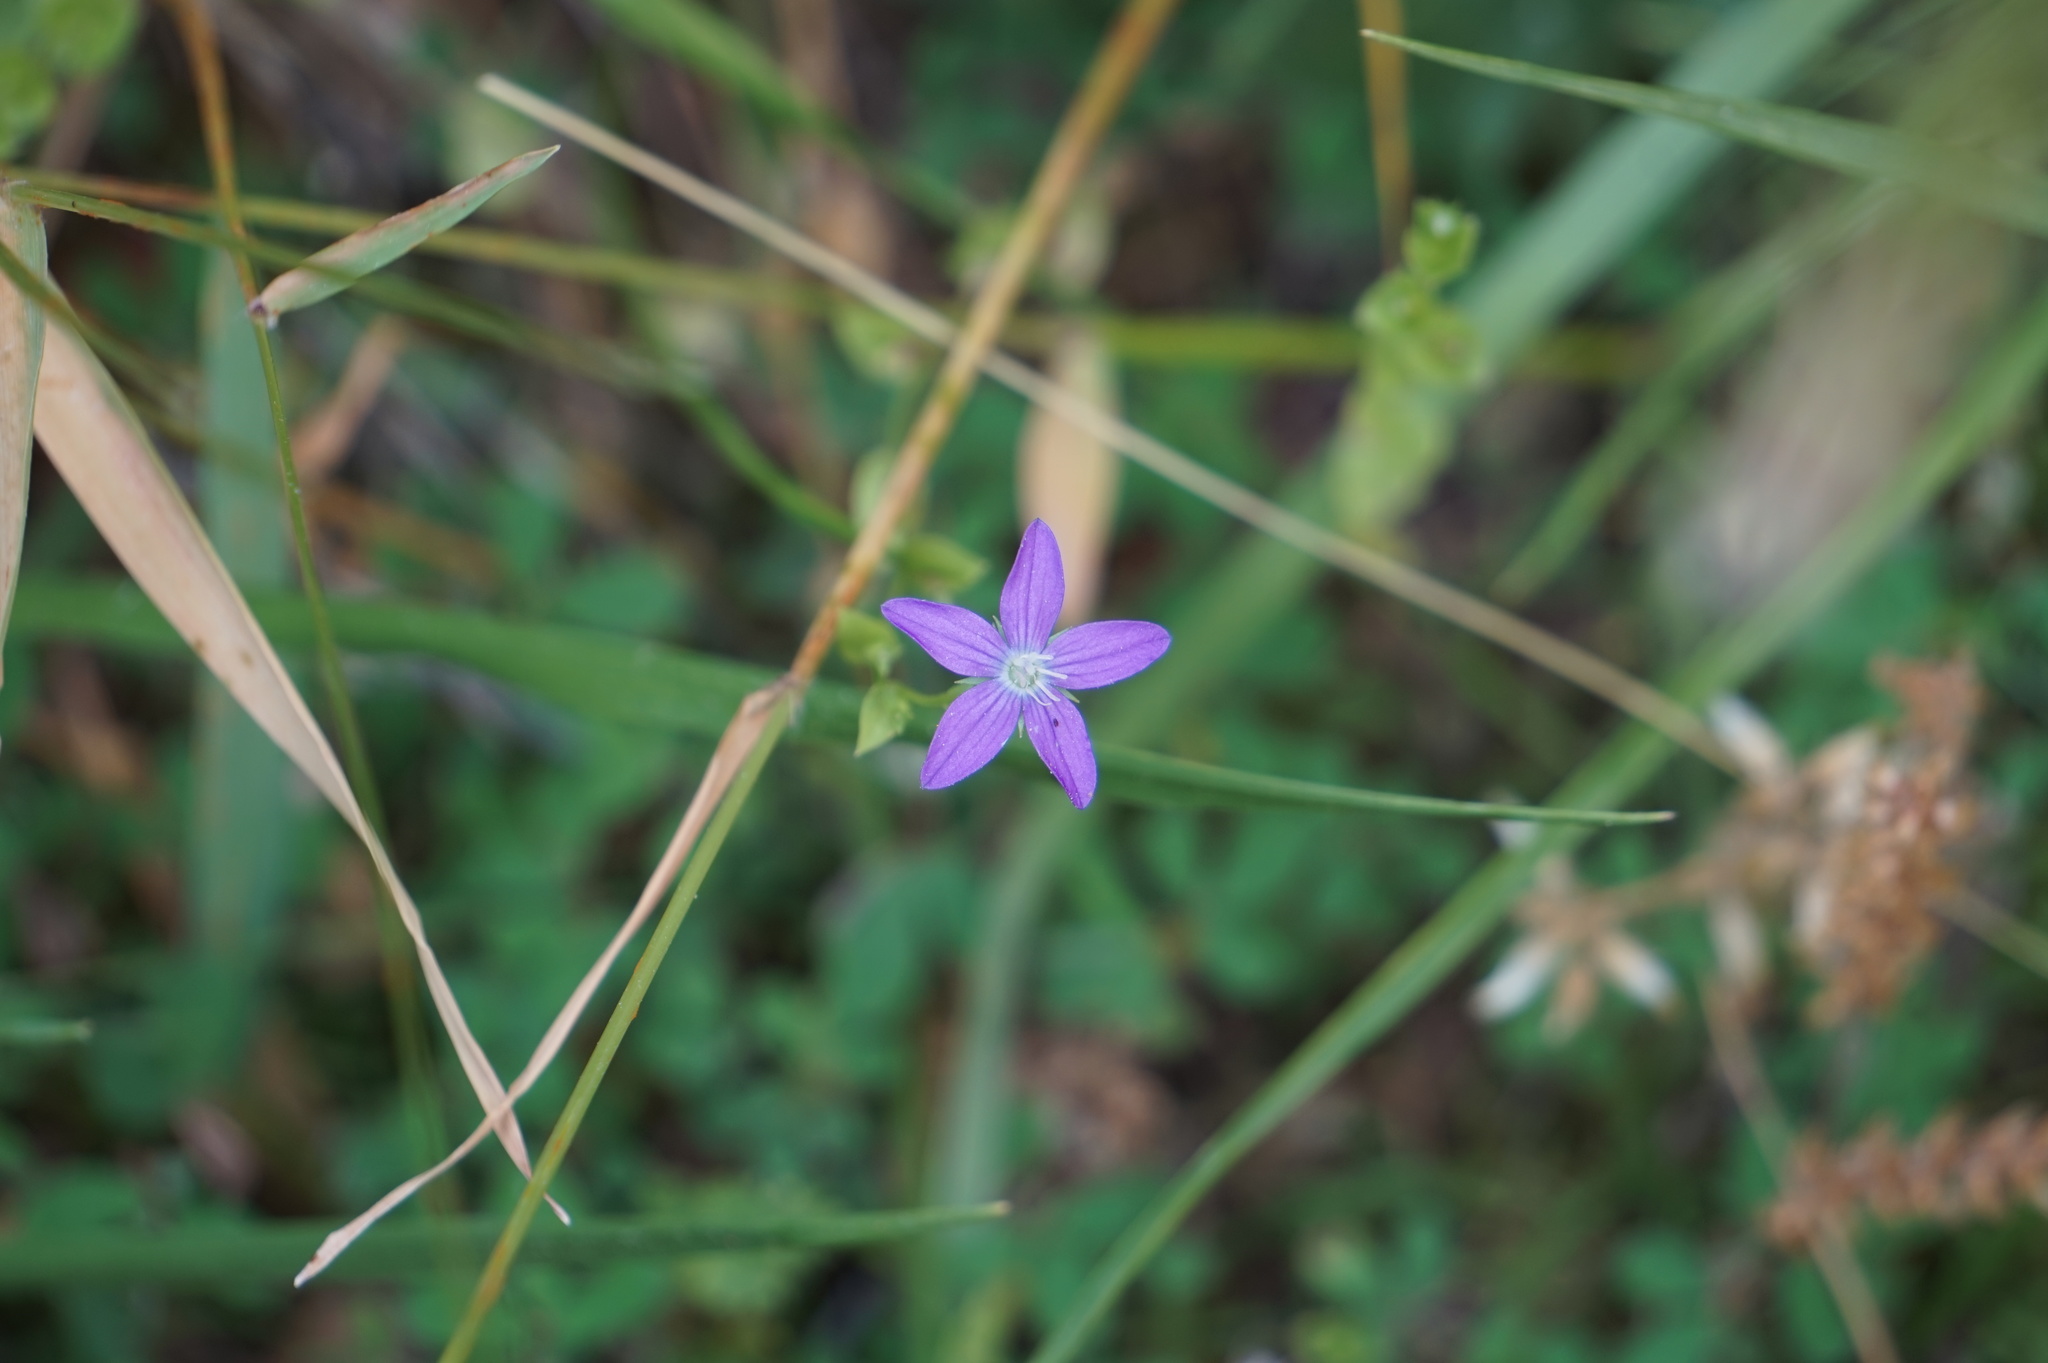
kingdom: Plantae
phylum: Tracheophyta
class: Magnoliopsida
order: Asterales
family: Campanulaceae
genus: Triodanis
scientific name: Triodanis biflora
